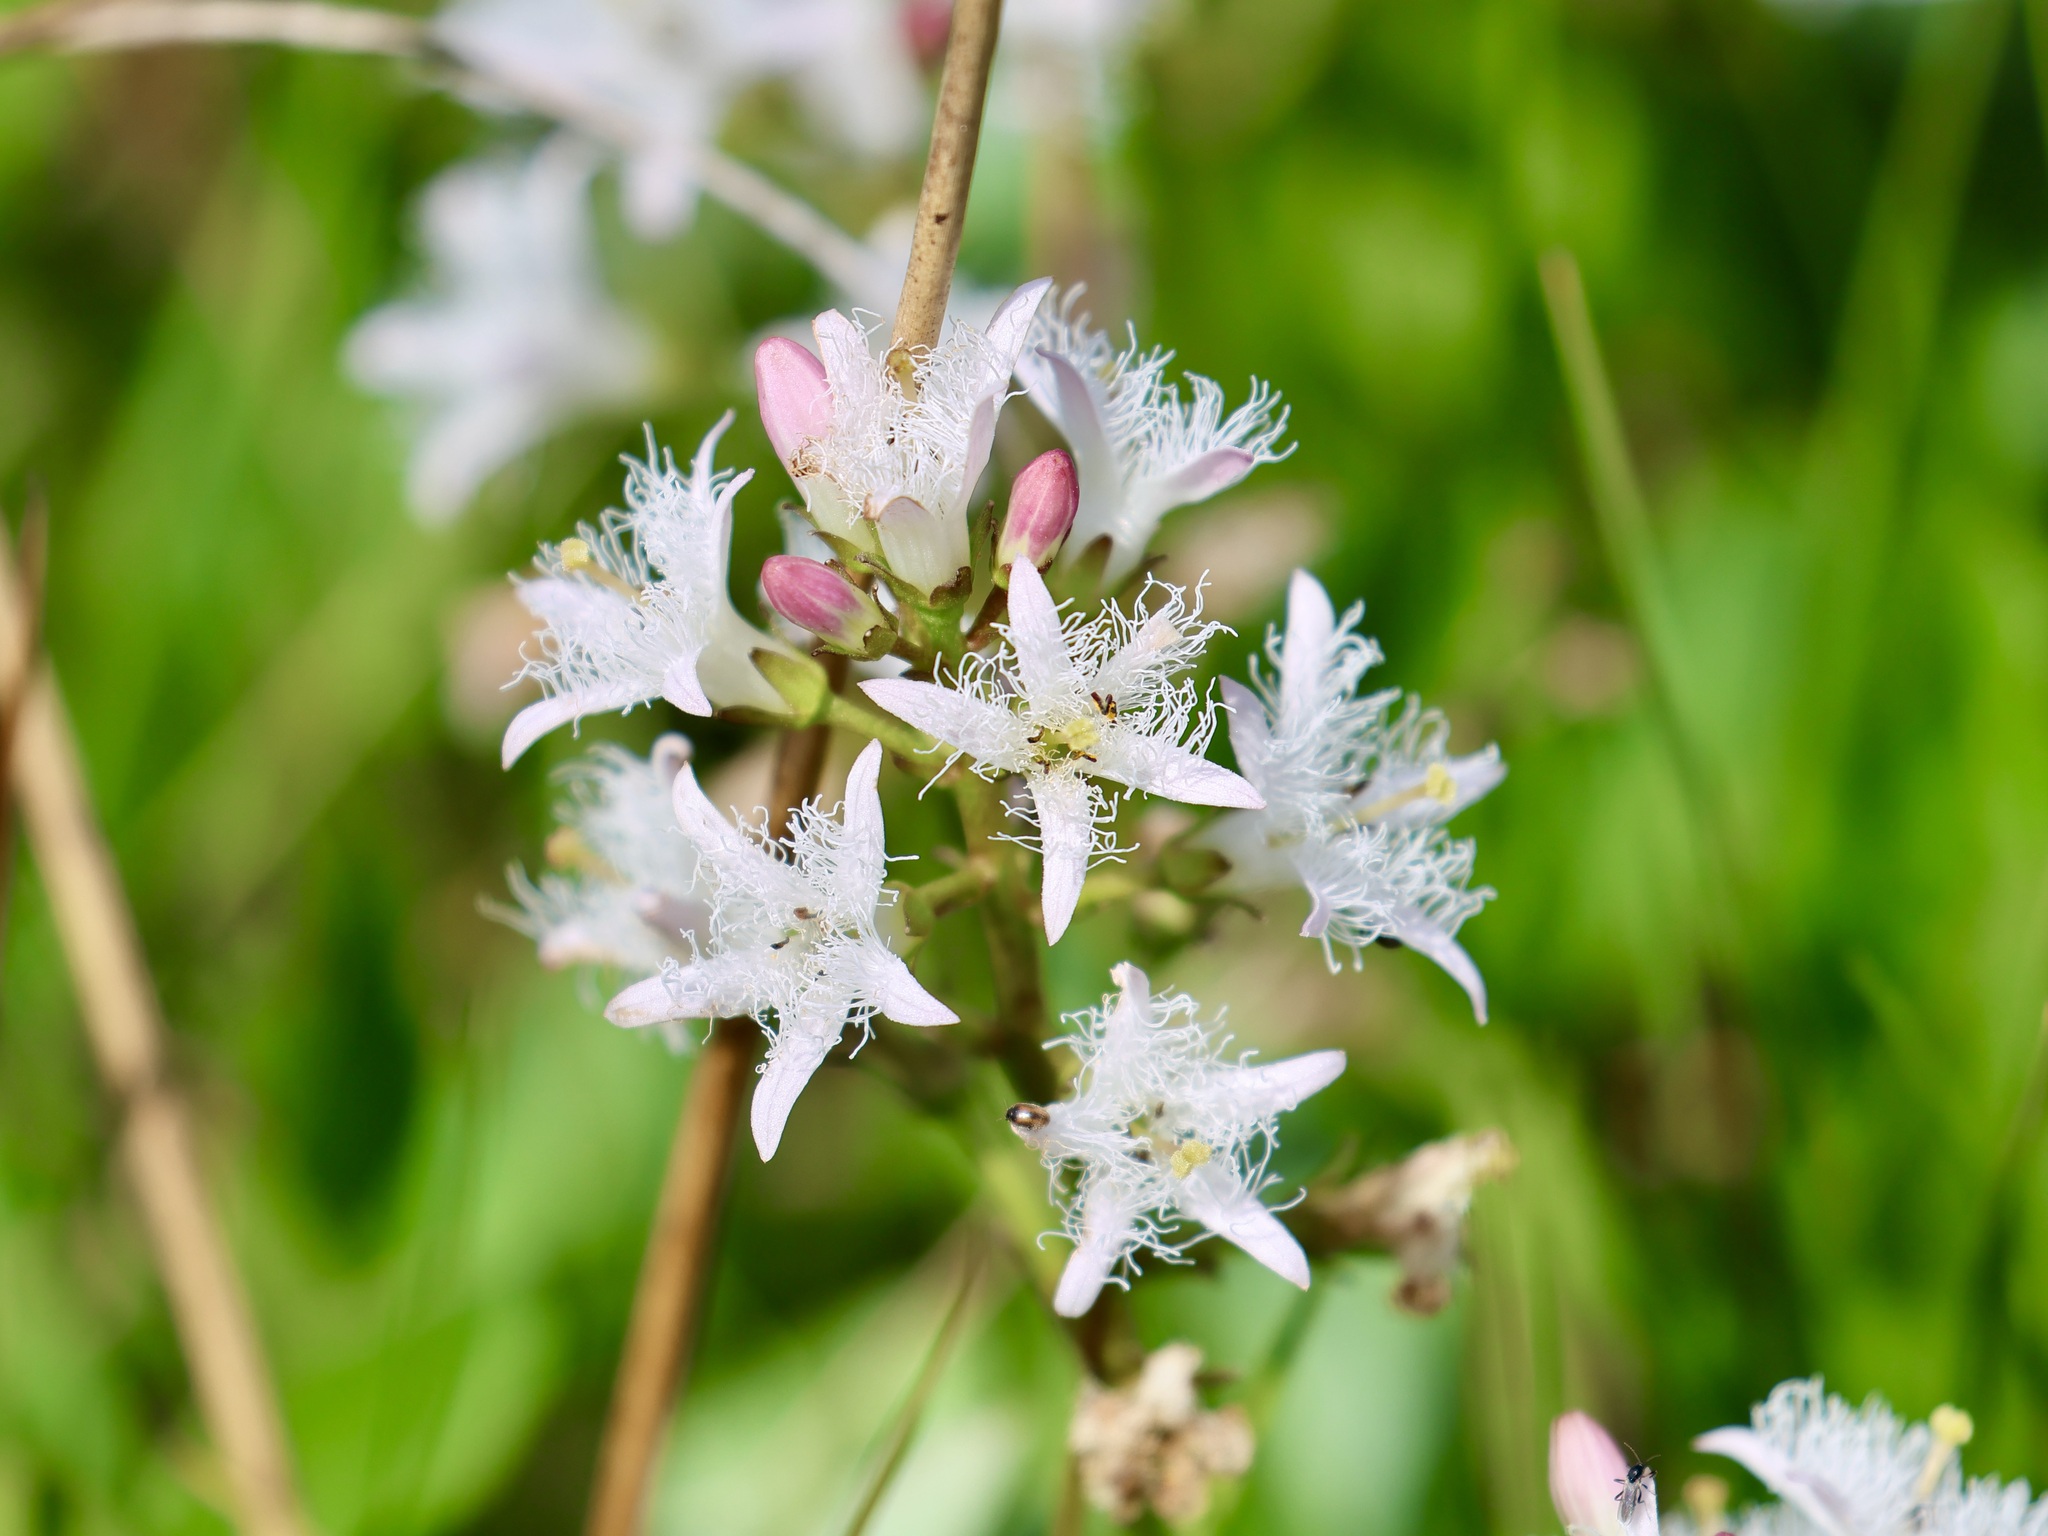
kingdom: Plantae
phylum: Tracheophyta
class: Magnoliopsida
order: Asterales
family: Menyanthaceae
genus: Menyanthes
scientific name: Menyanthes trifoliata
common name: Bogbean
